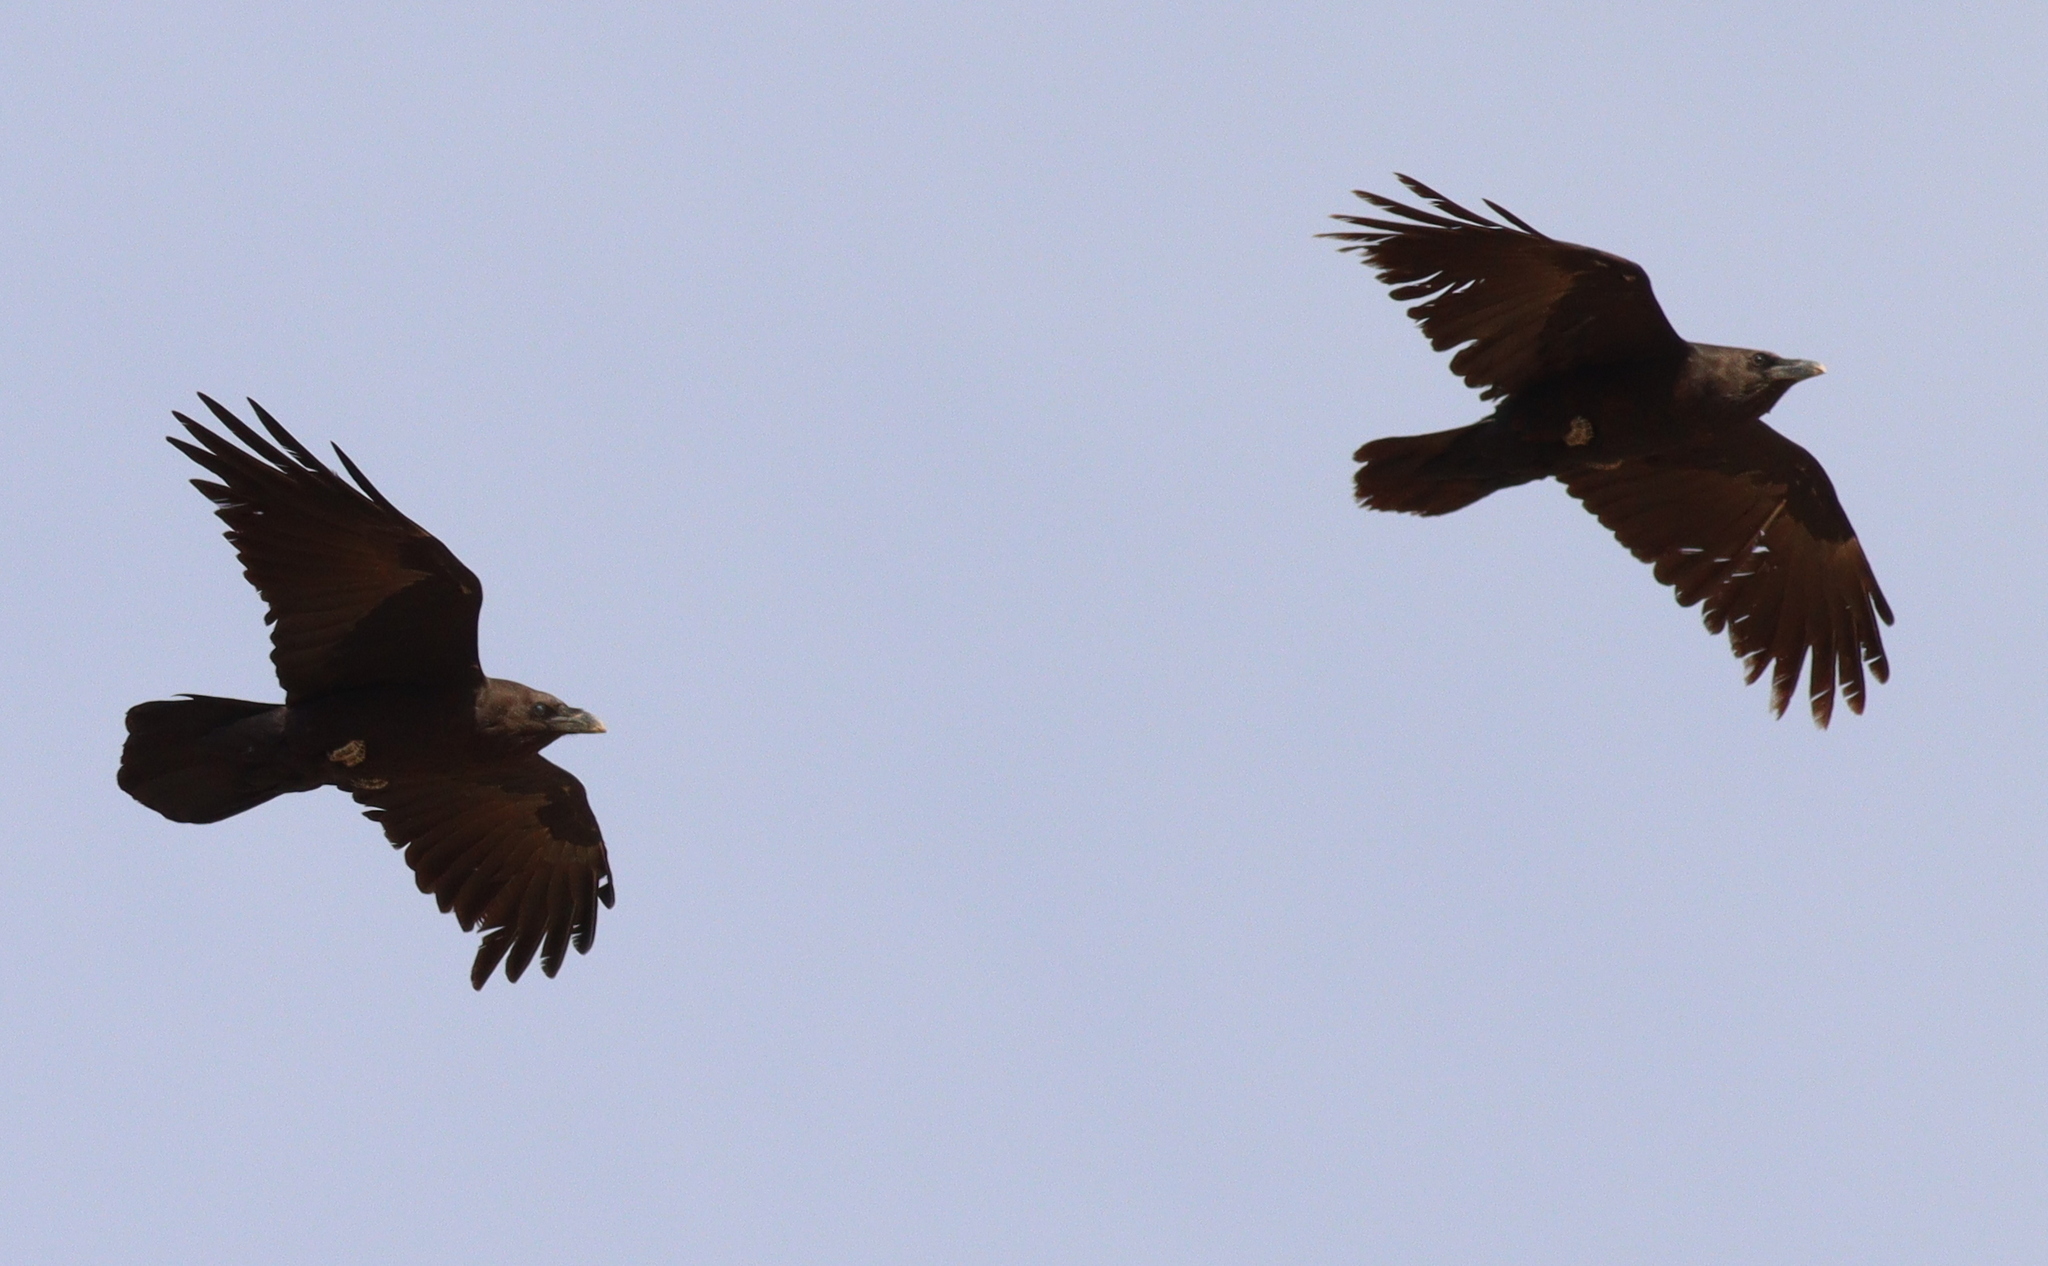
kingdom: Animalia
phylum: Chordata
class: Aves
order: Passeriformes
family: Corvidae
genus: Corvus
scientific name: Corvus ruficollis
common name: Brown-necked raven
